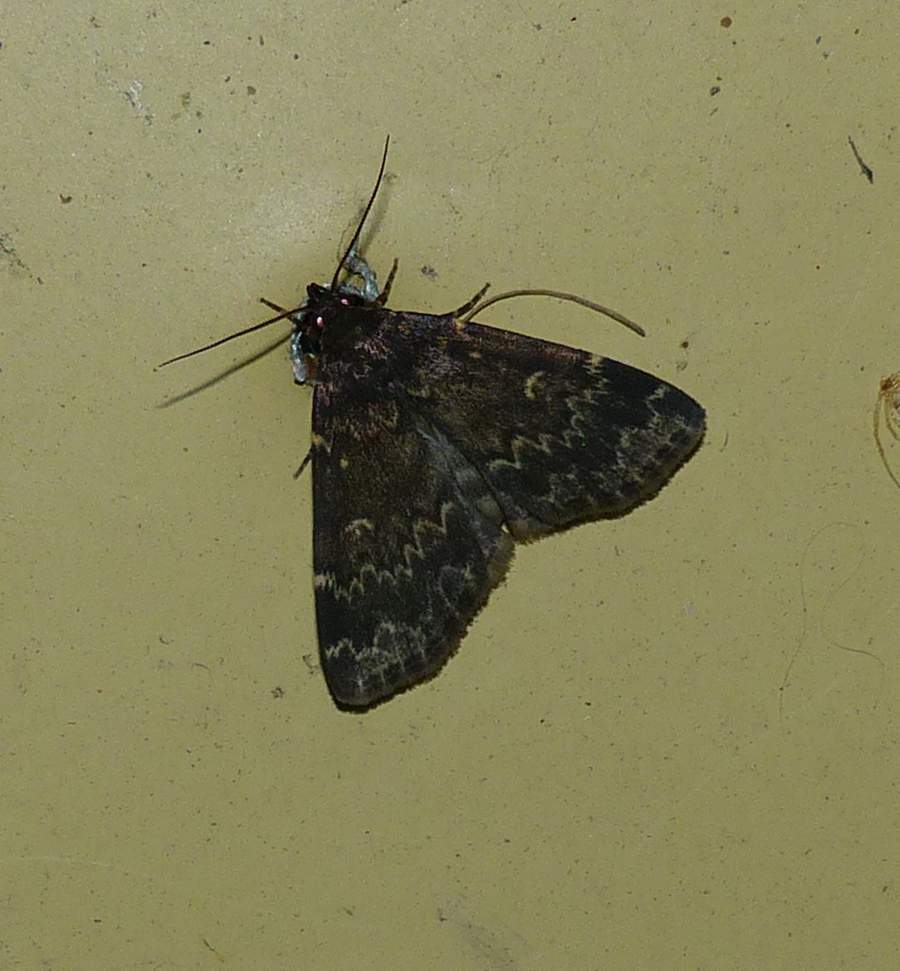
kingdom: Animalia
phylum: Arthropoda
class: Insecta
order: Lepidoptera
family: Erebidae
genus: Idia
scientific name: Idia lubricalis
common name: Twin-striped tabby
